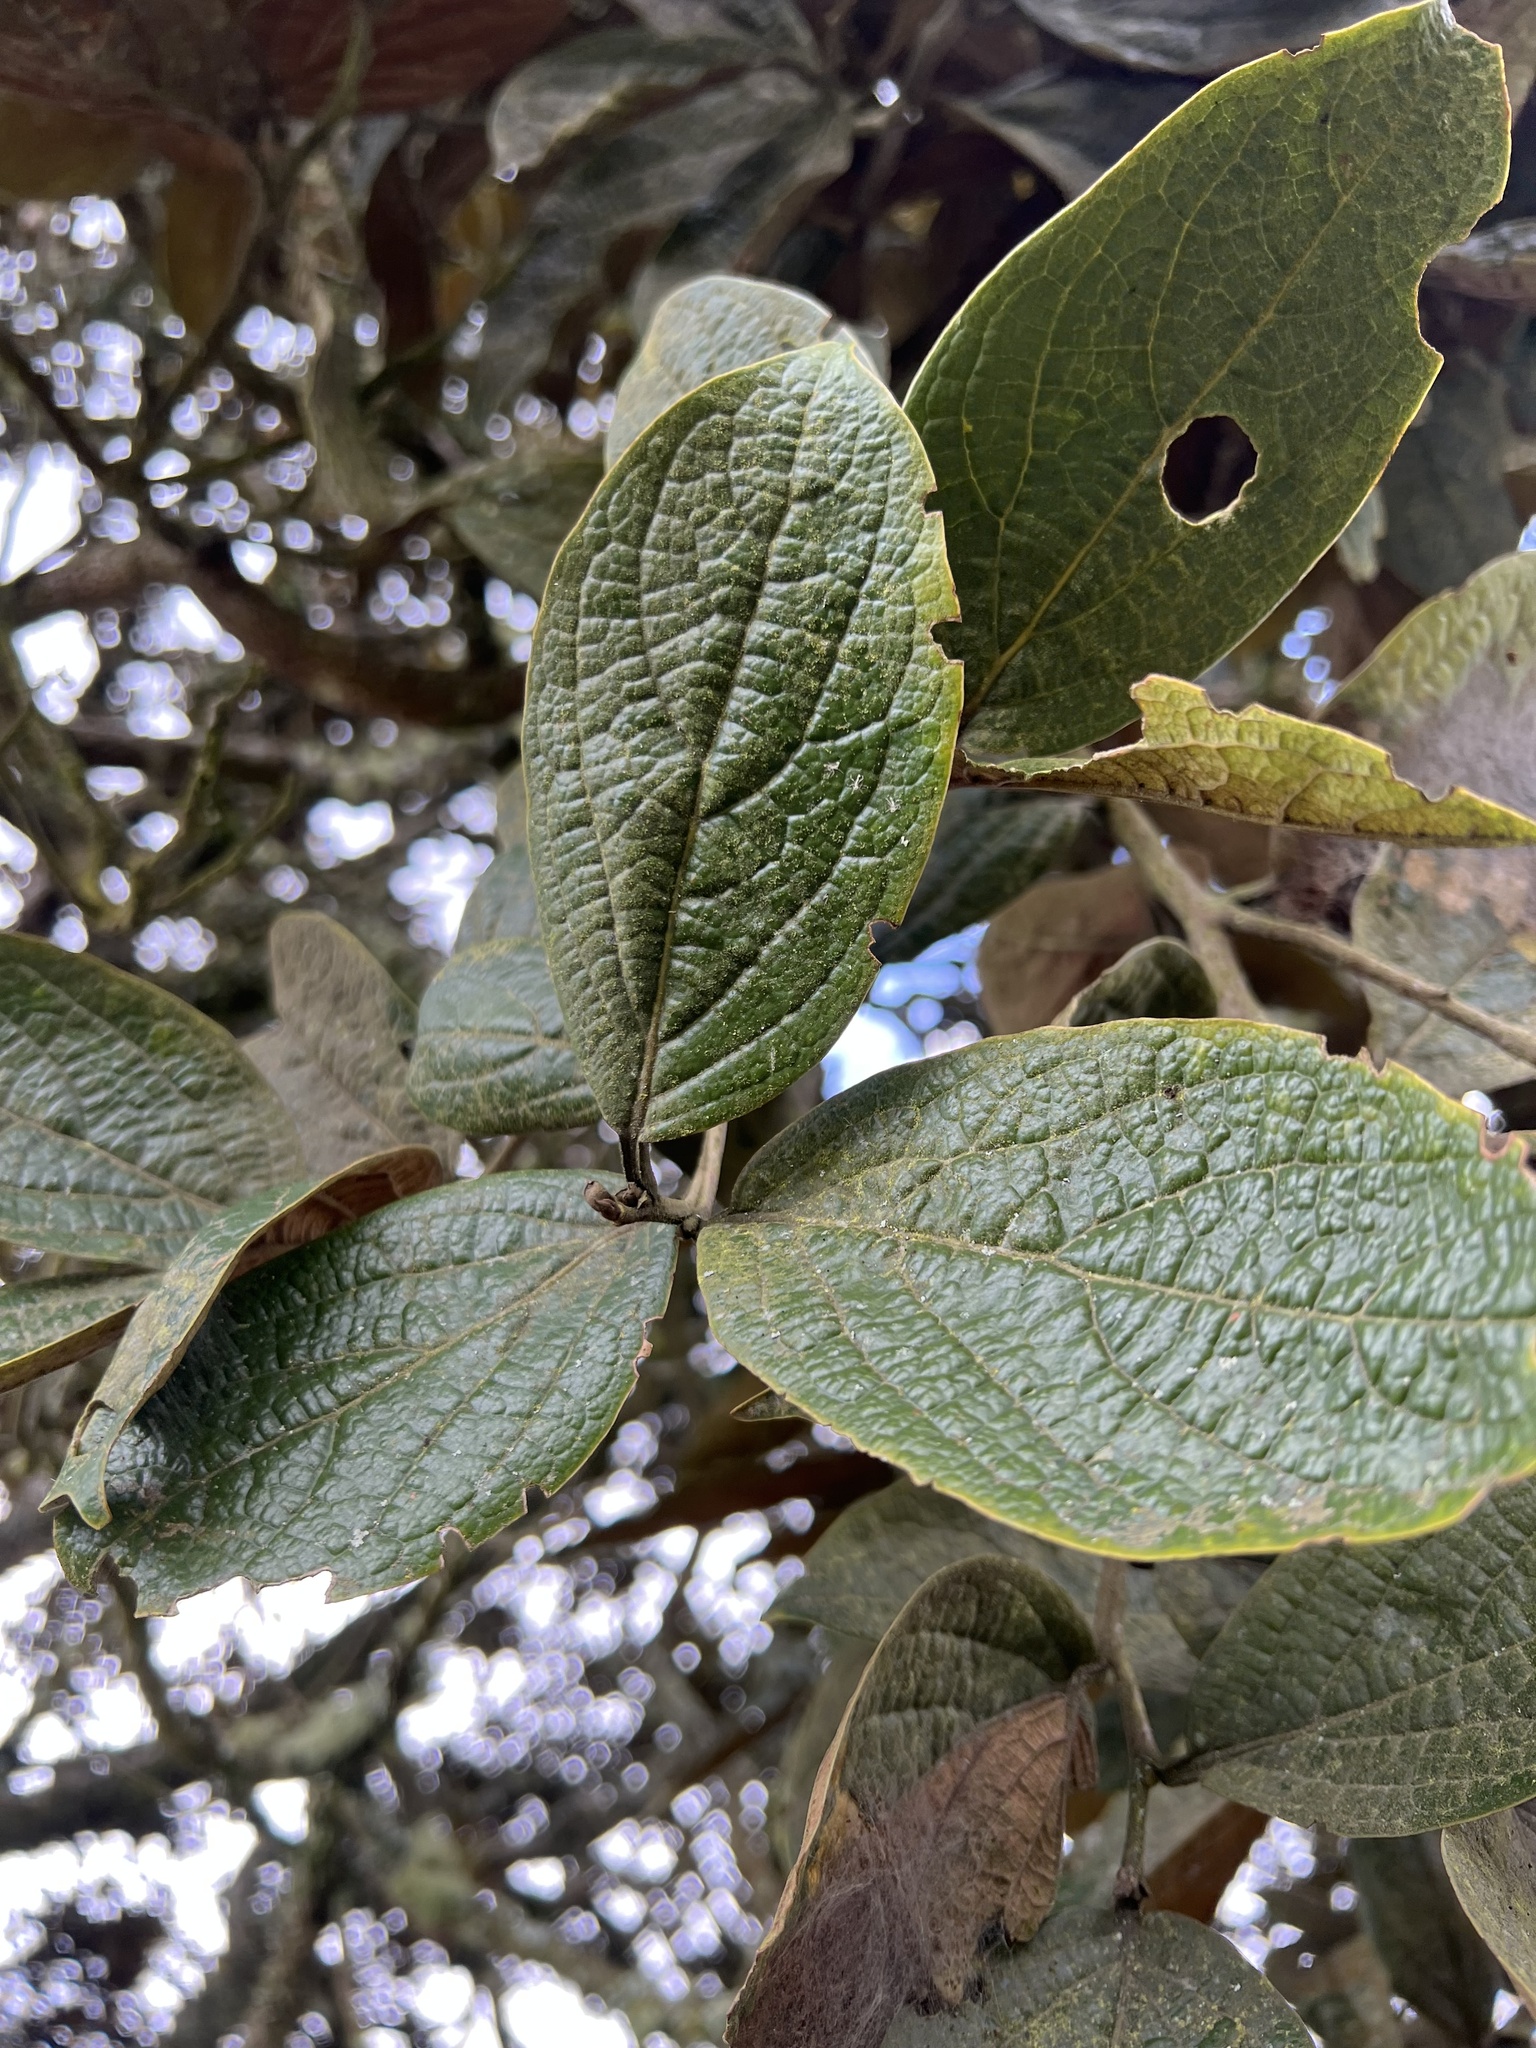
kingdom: Plantae
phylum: Tracheophyta
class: Magnoliopsida
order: Laurales
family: Lauraceae
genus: Ocotea
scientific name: Ocotea pedicellata
